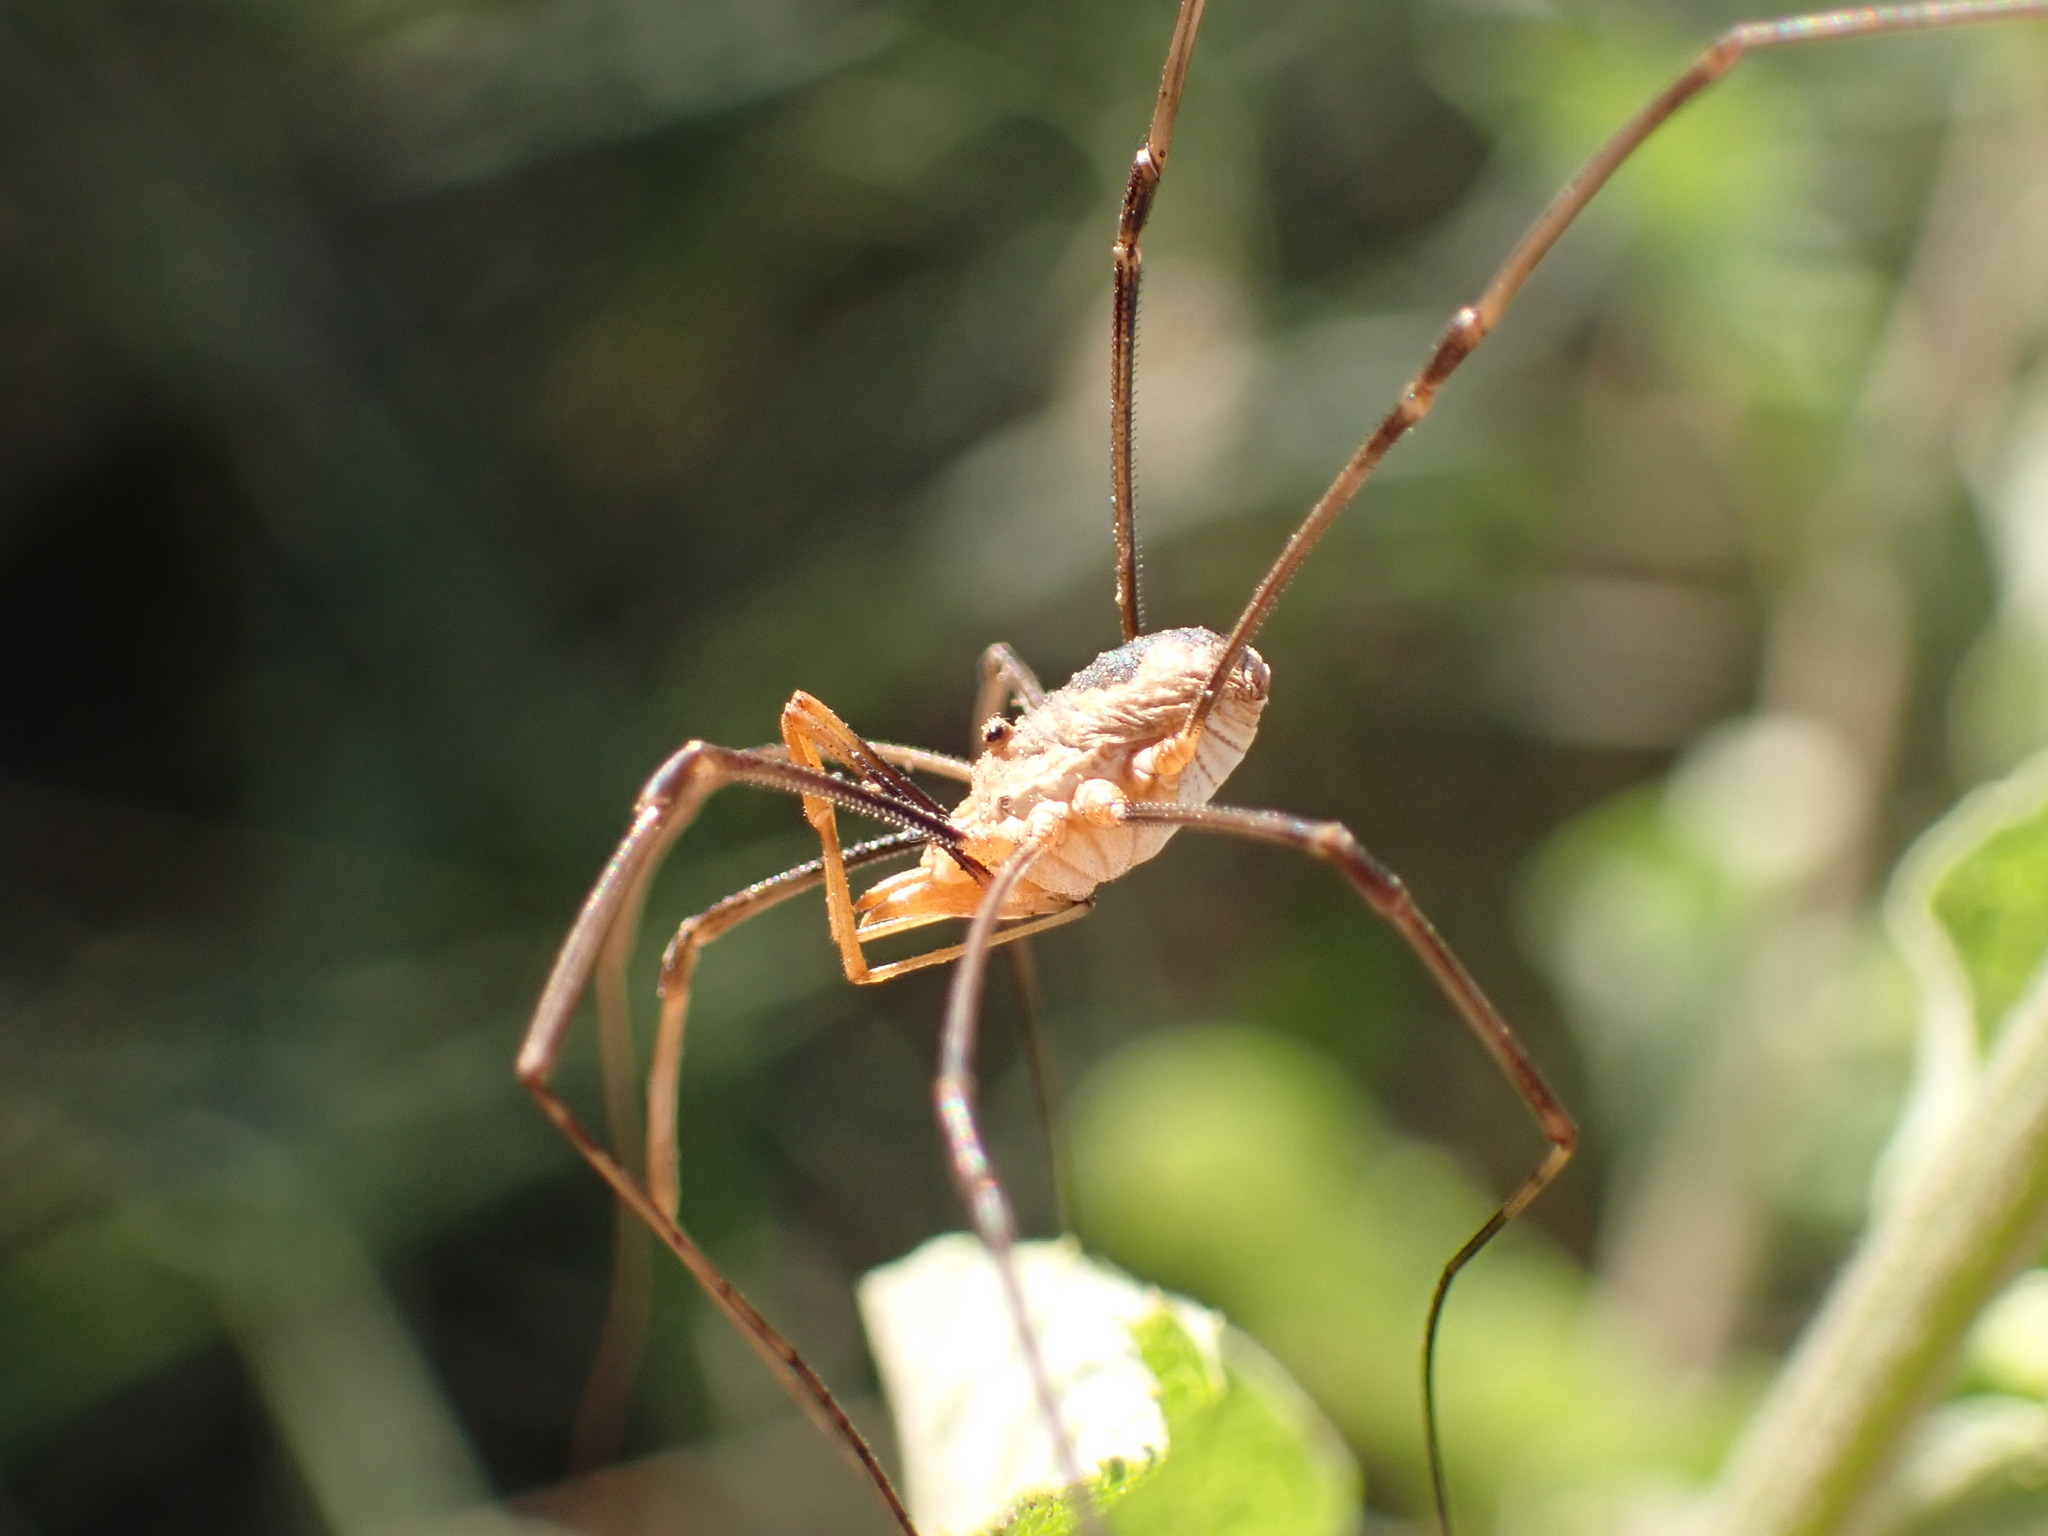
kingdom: Animalia
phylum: Arthropoda
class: Arachnida
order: Opiliones
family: Phalangiidae
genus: Phalangium
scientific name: Phalangium opilio
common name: Daddy longleg
